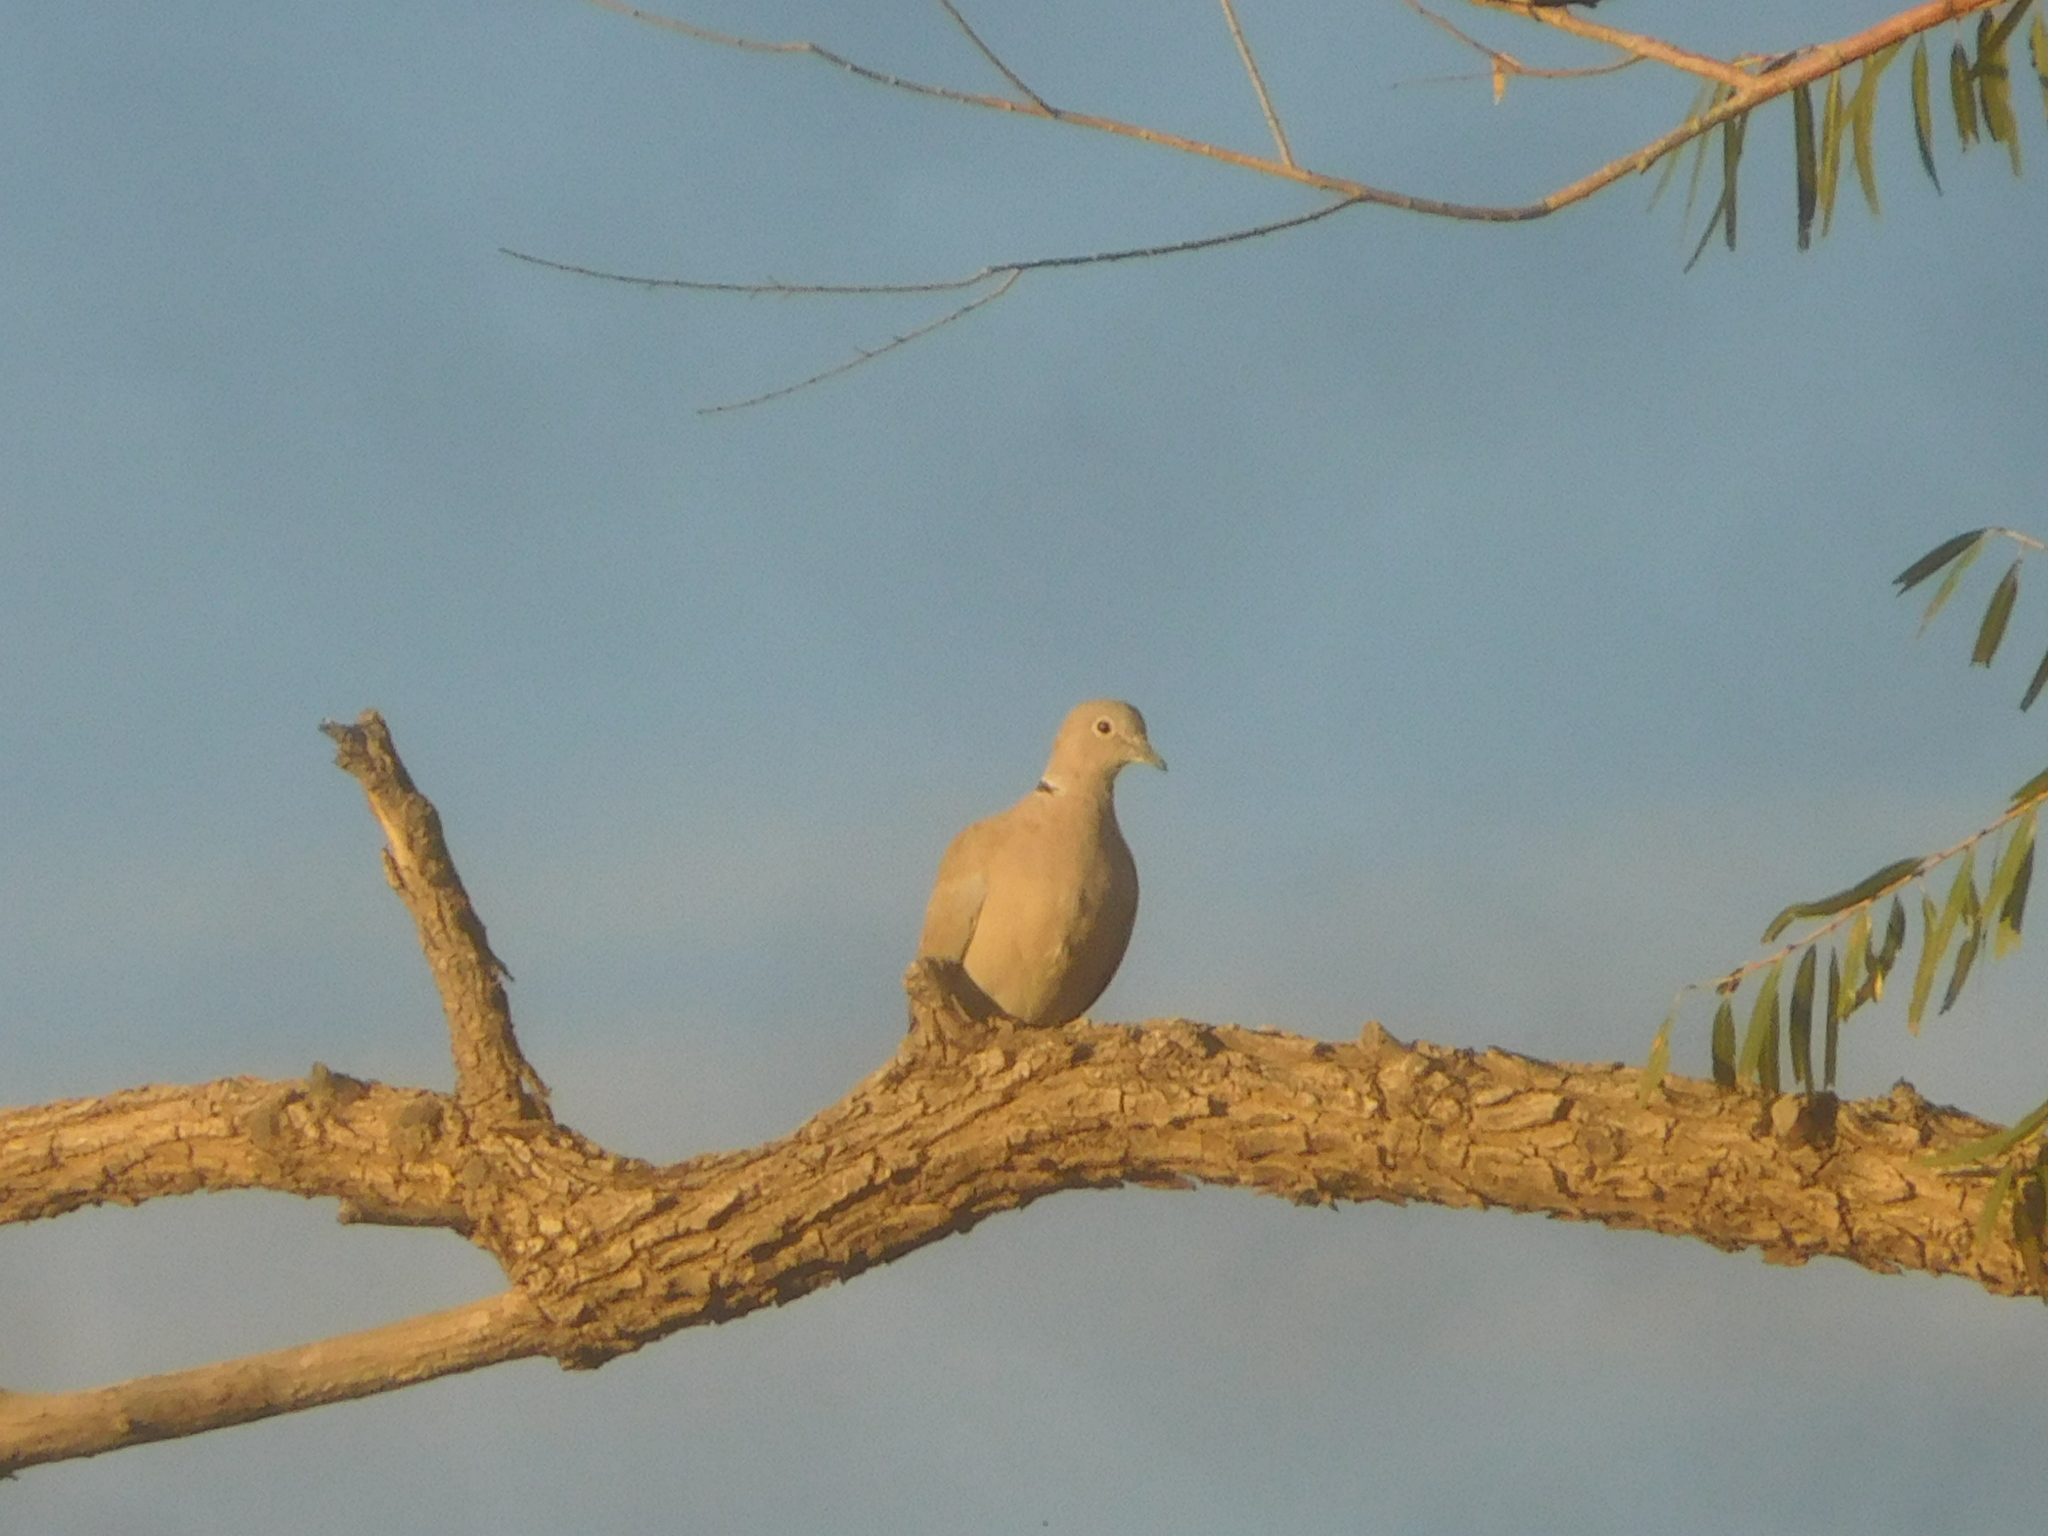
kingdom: Animalia
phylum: Chordata
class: Aves
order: Columbiformes
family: Columbidae
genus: Streptopelia
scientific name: Streptopelia decaocto
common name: Eurasian collared dove
